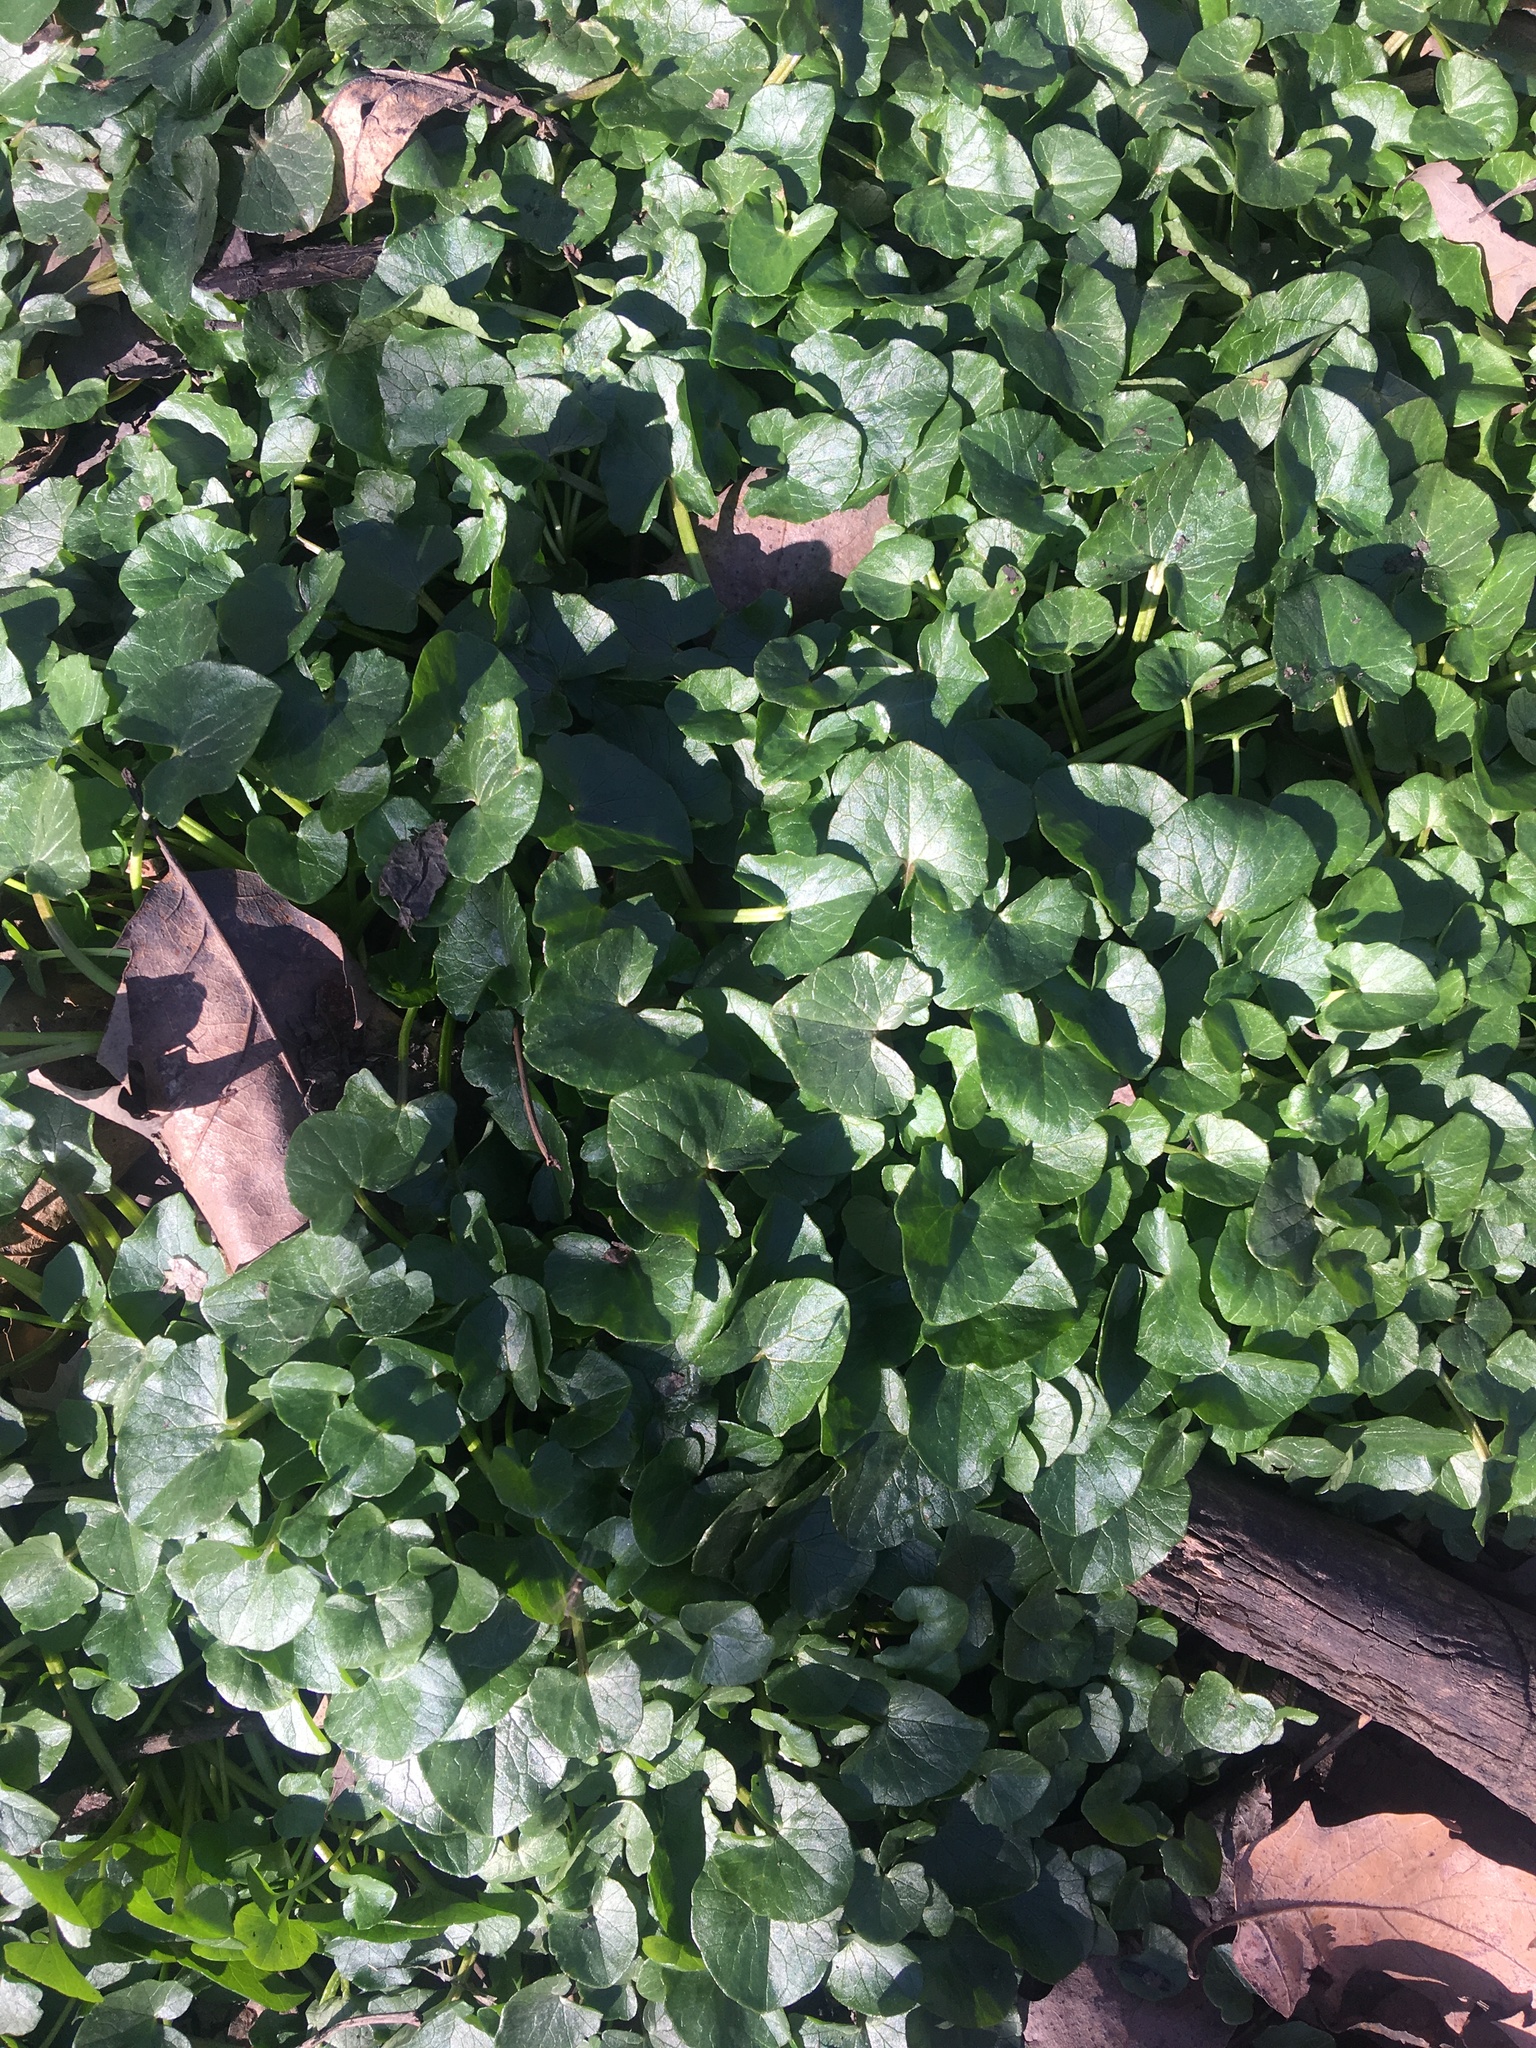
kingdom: Plantae
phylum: Tracheophyta
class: Magnoliopsida
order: Ranunculales
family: Ranunculaceae
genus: Ficaria
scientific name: Ficaria verna
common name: Lesser celandine
